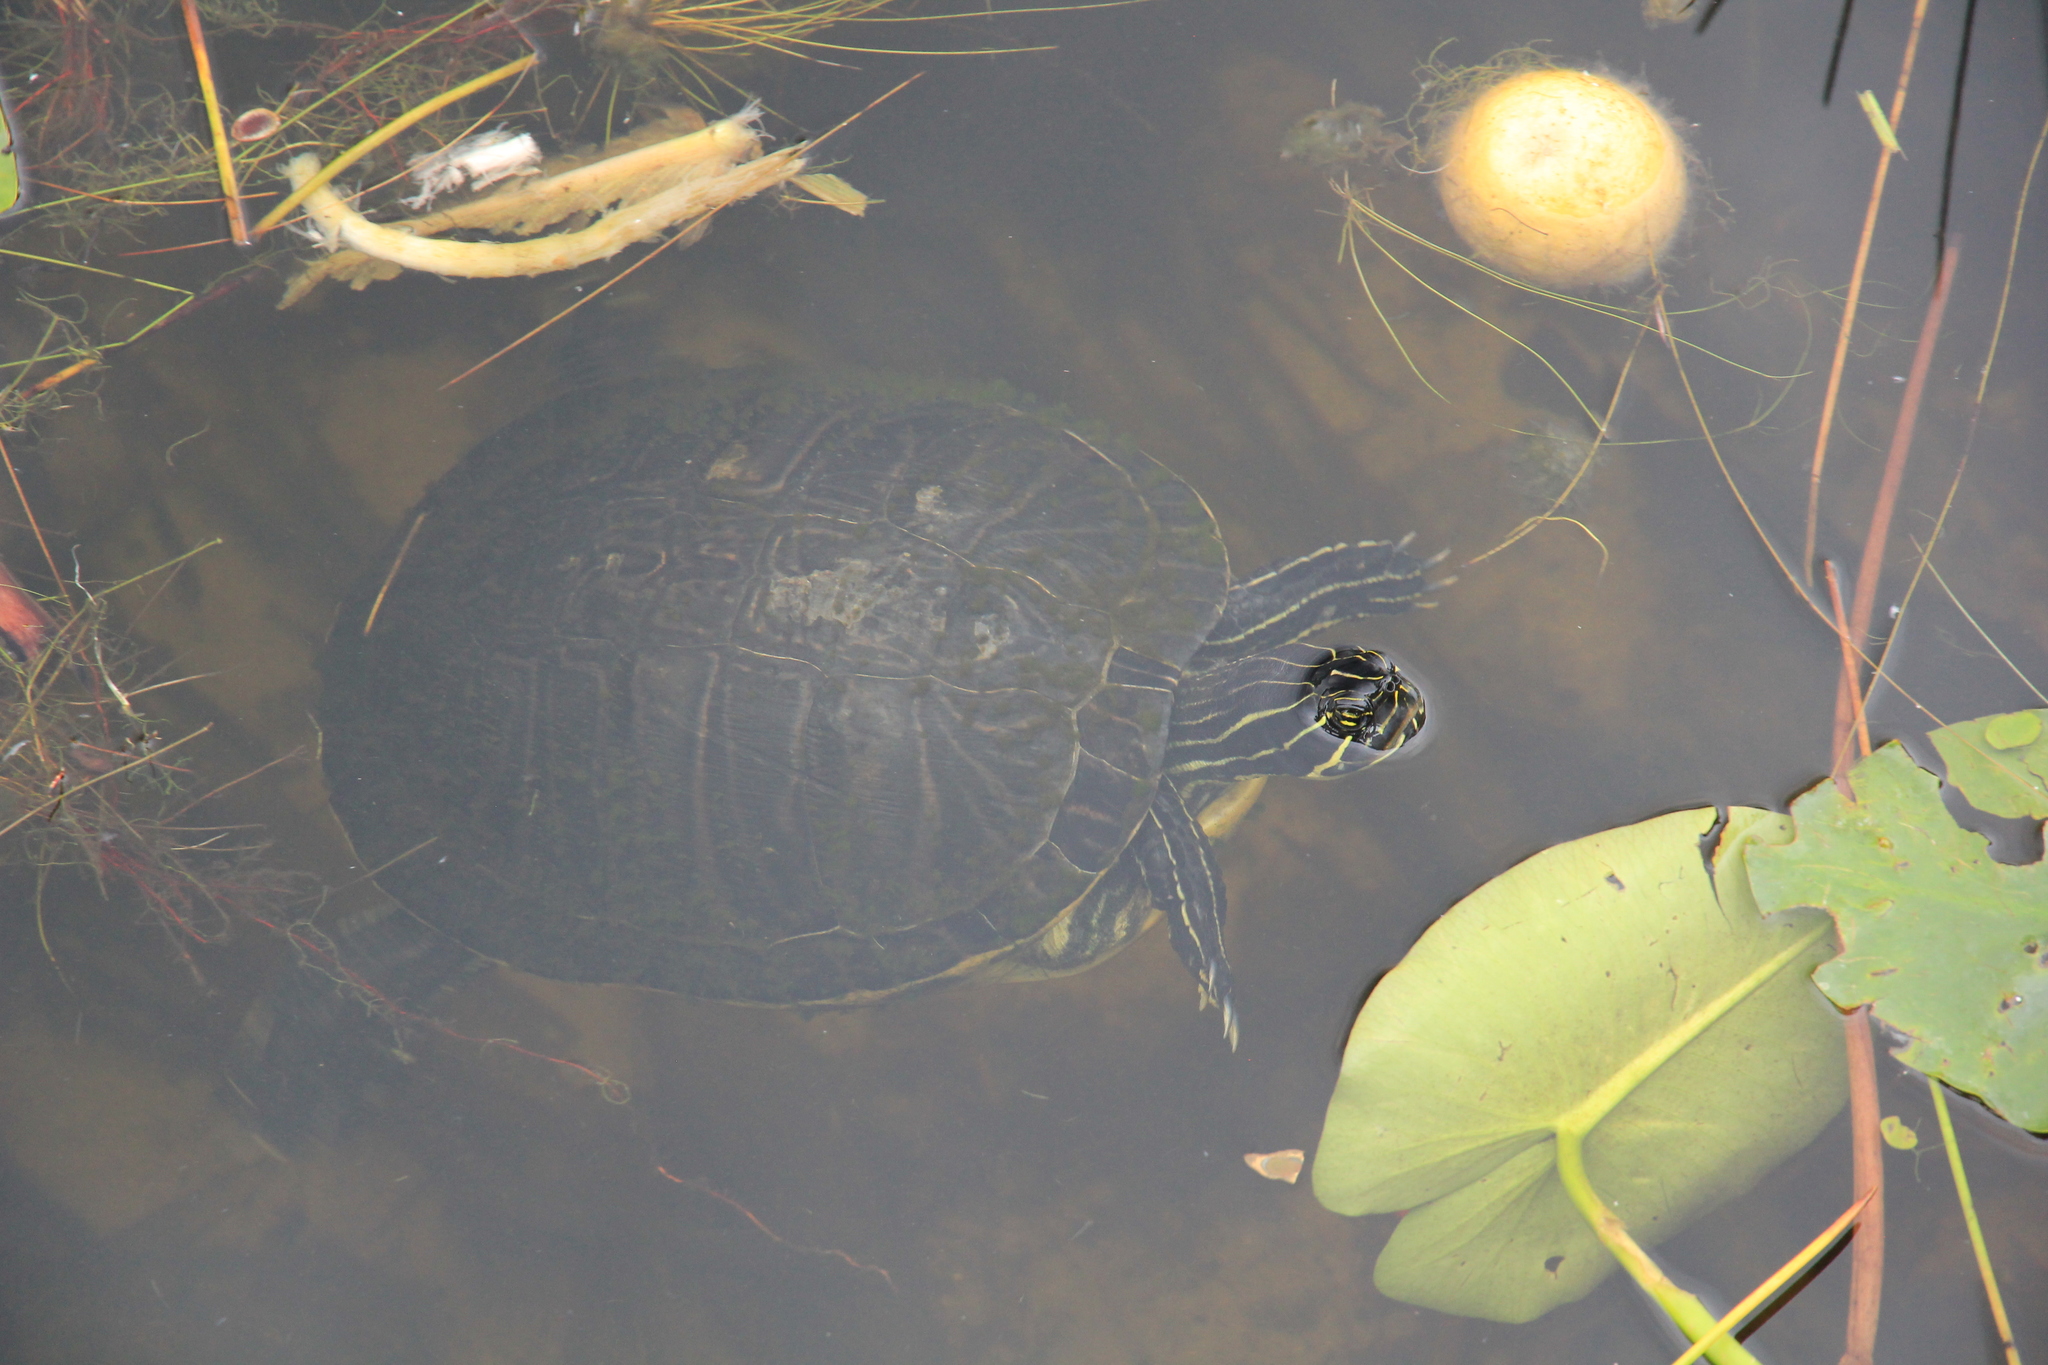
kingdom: Animalia
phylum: Chordata
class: Testudines
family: Emydidae
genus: Pseudemys
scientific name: Pseudemys peninsularis
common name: Peninsula cooter
